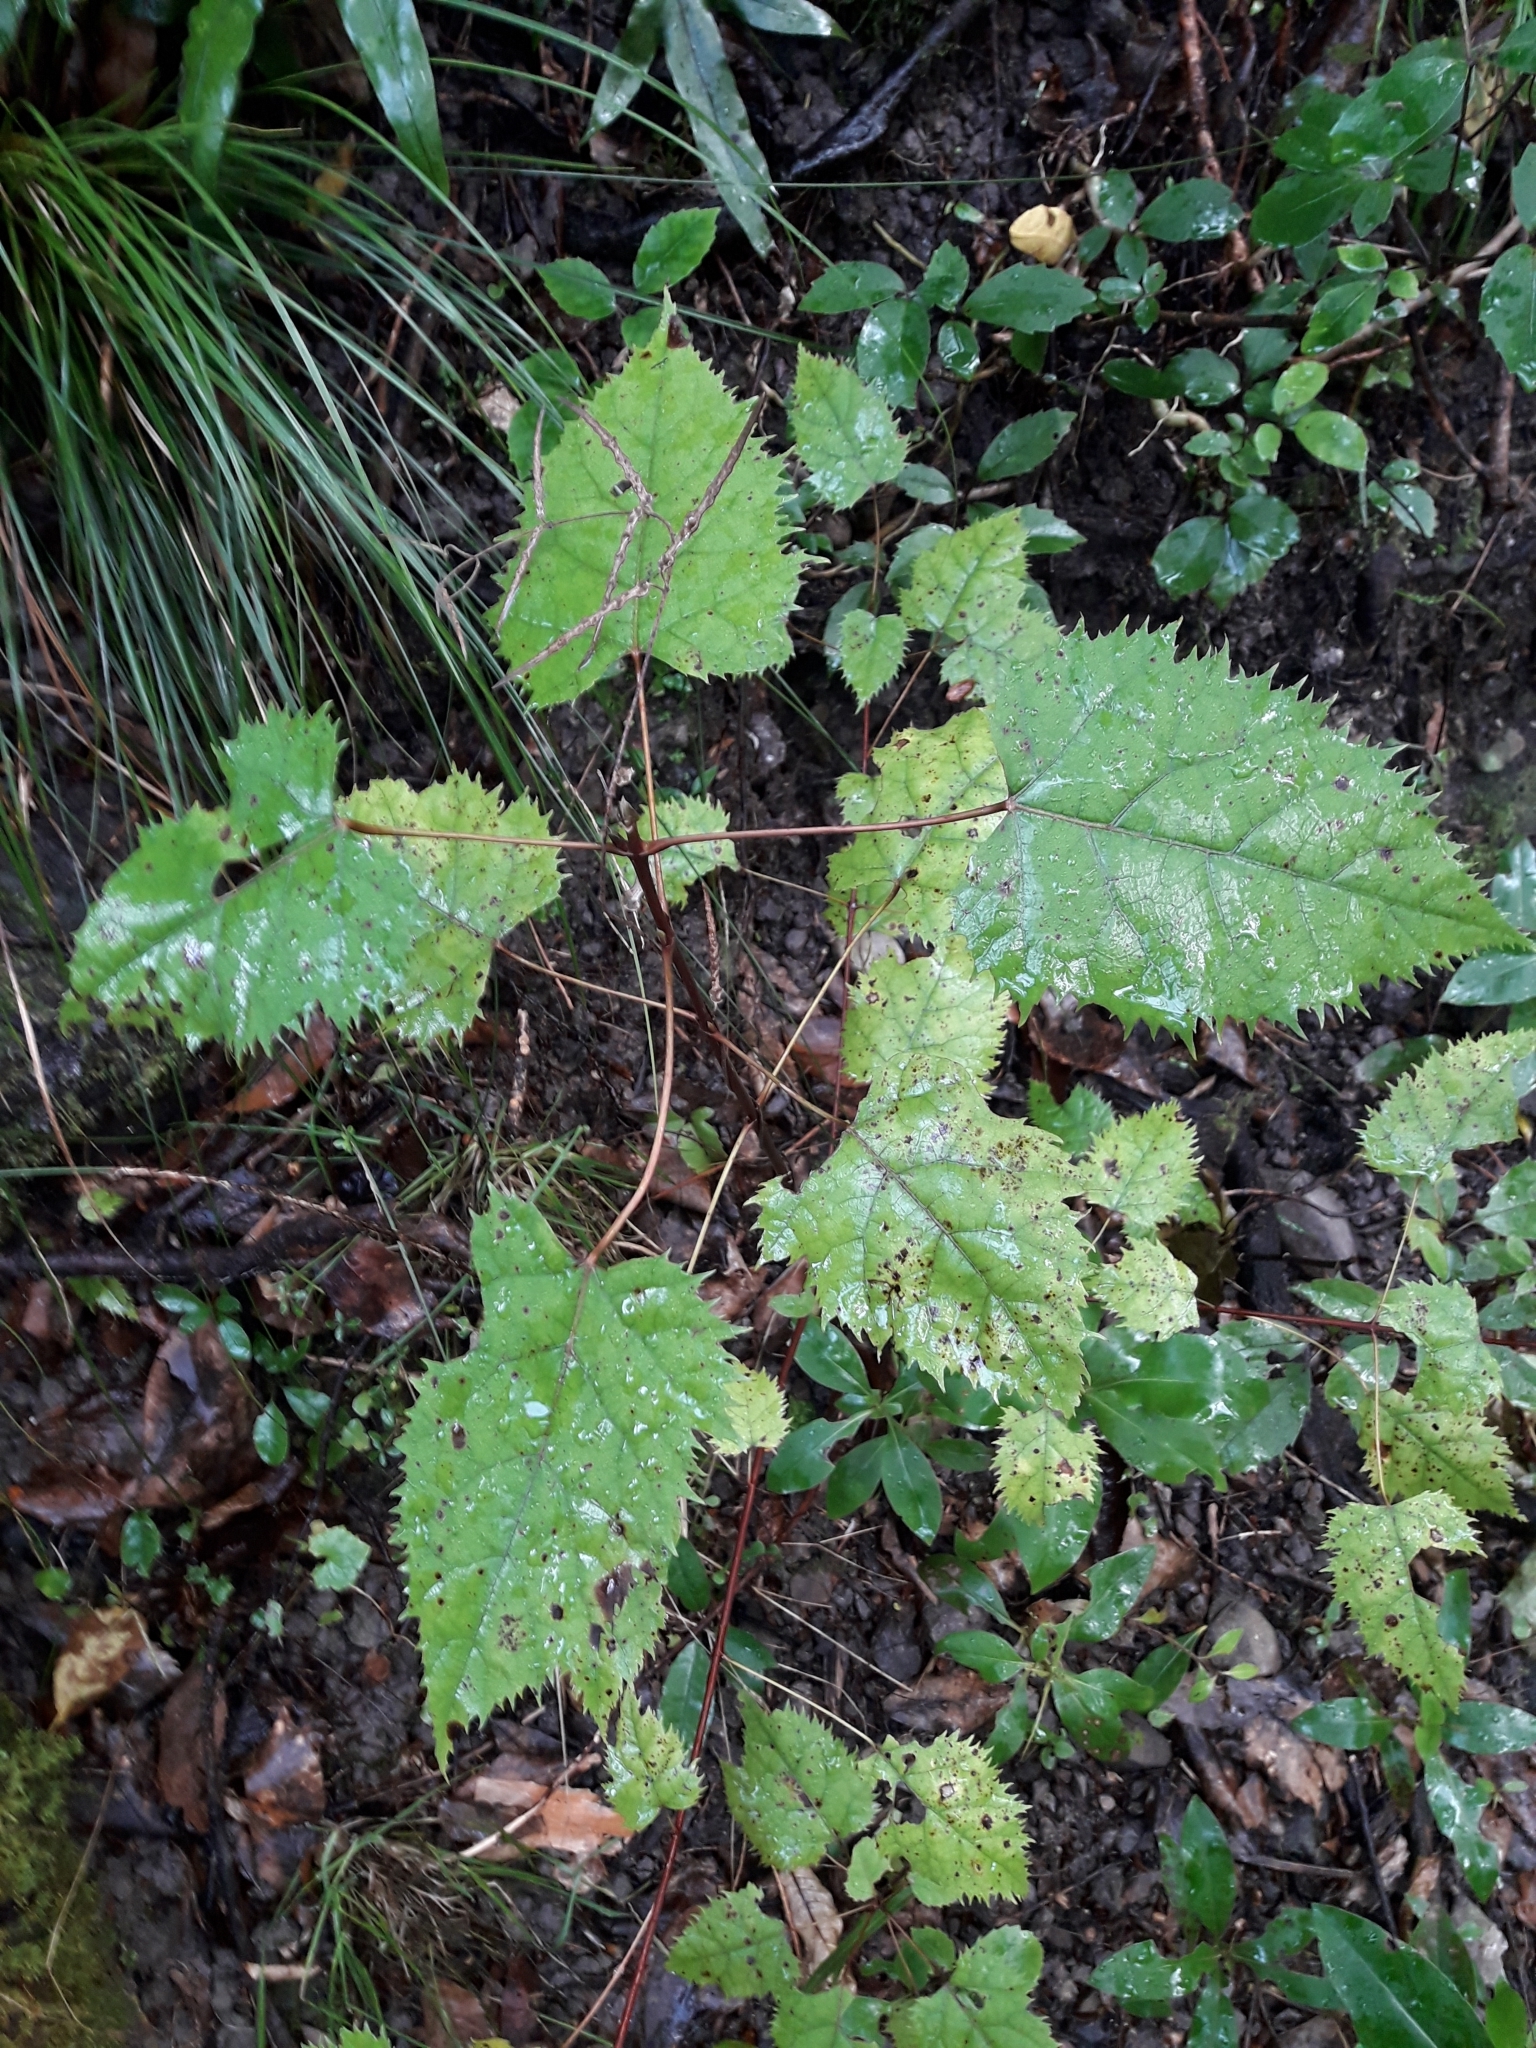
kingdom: Plantae
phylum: Tracheophyta
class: Magnoliopsida
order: Oxalidales
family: Elaeocarpaceae
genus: Aristotelia
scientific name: Aristotelia serrata
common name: New zealand wineberry
